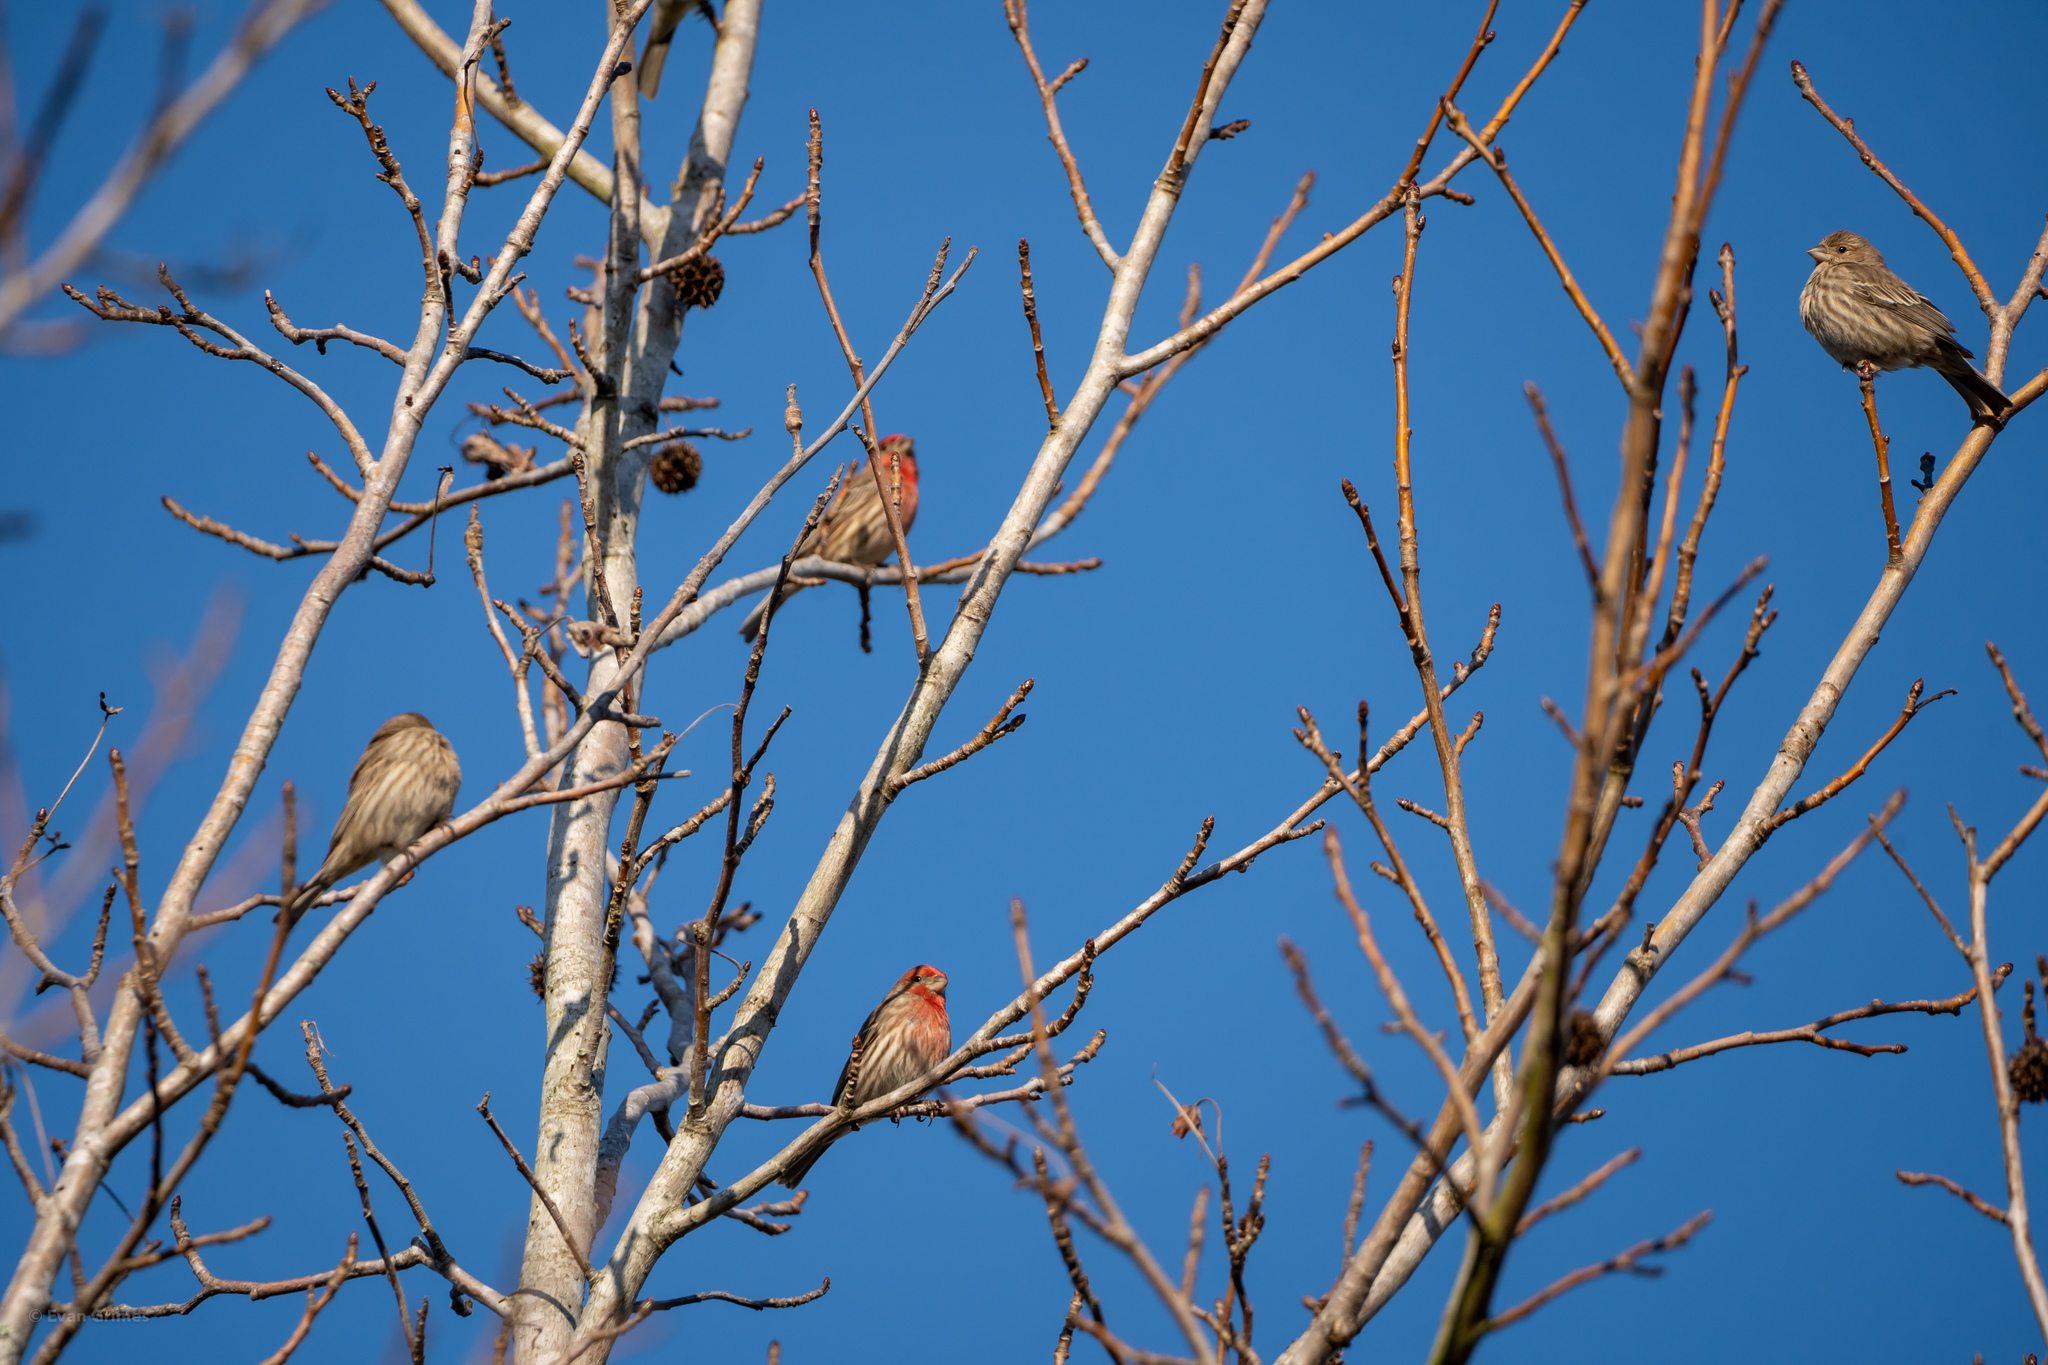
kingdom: Animalia
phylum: Chordata
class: Aves
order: Passeriformes
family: Fringillidae
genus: Haemorhous
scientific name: Haemorhous mexicanus
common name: House finch
